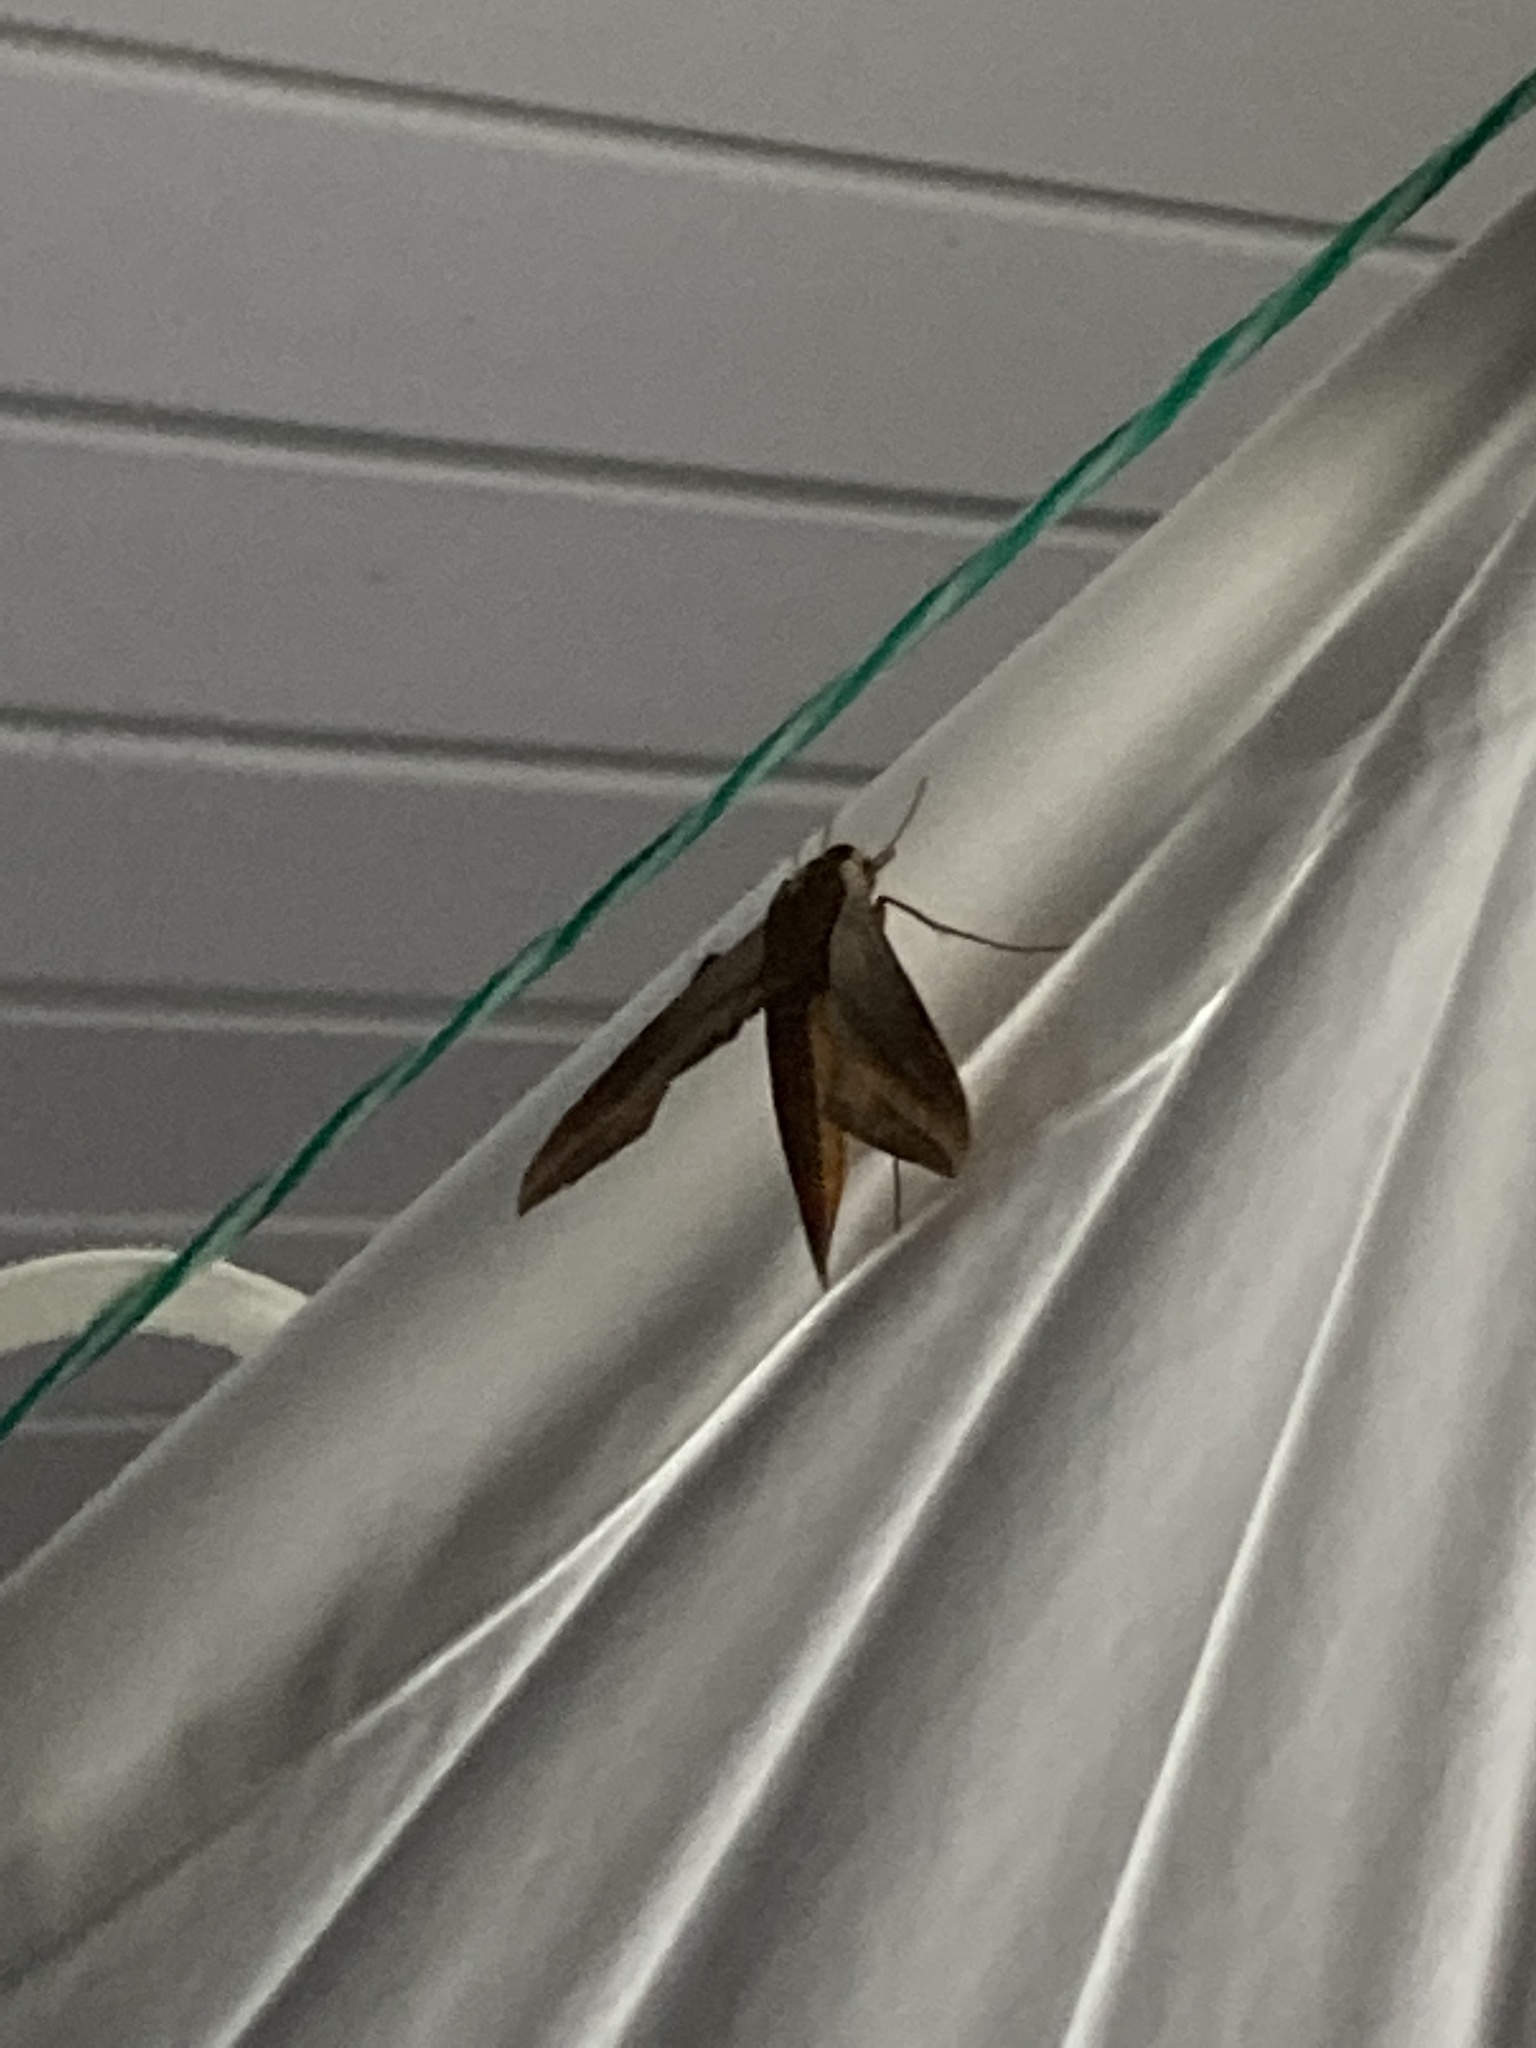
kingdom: Animalia
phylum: Arthropoda
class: Insecta
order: Lepidoptera
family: Sphingidae
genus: Xylophanes
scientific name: Xylophanes tersa
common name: Tersa sphinx
